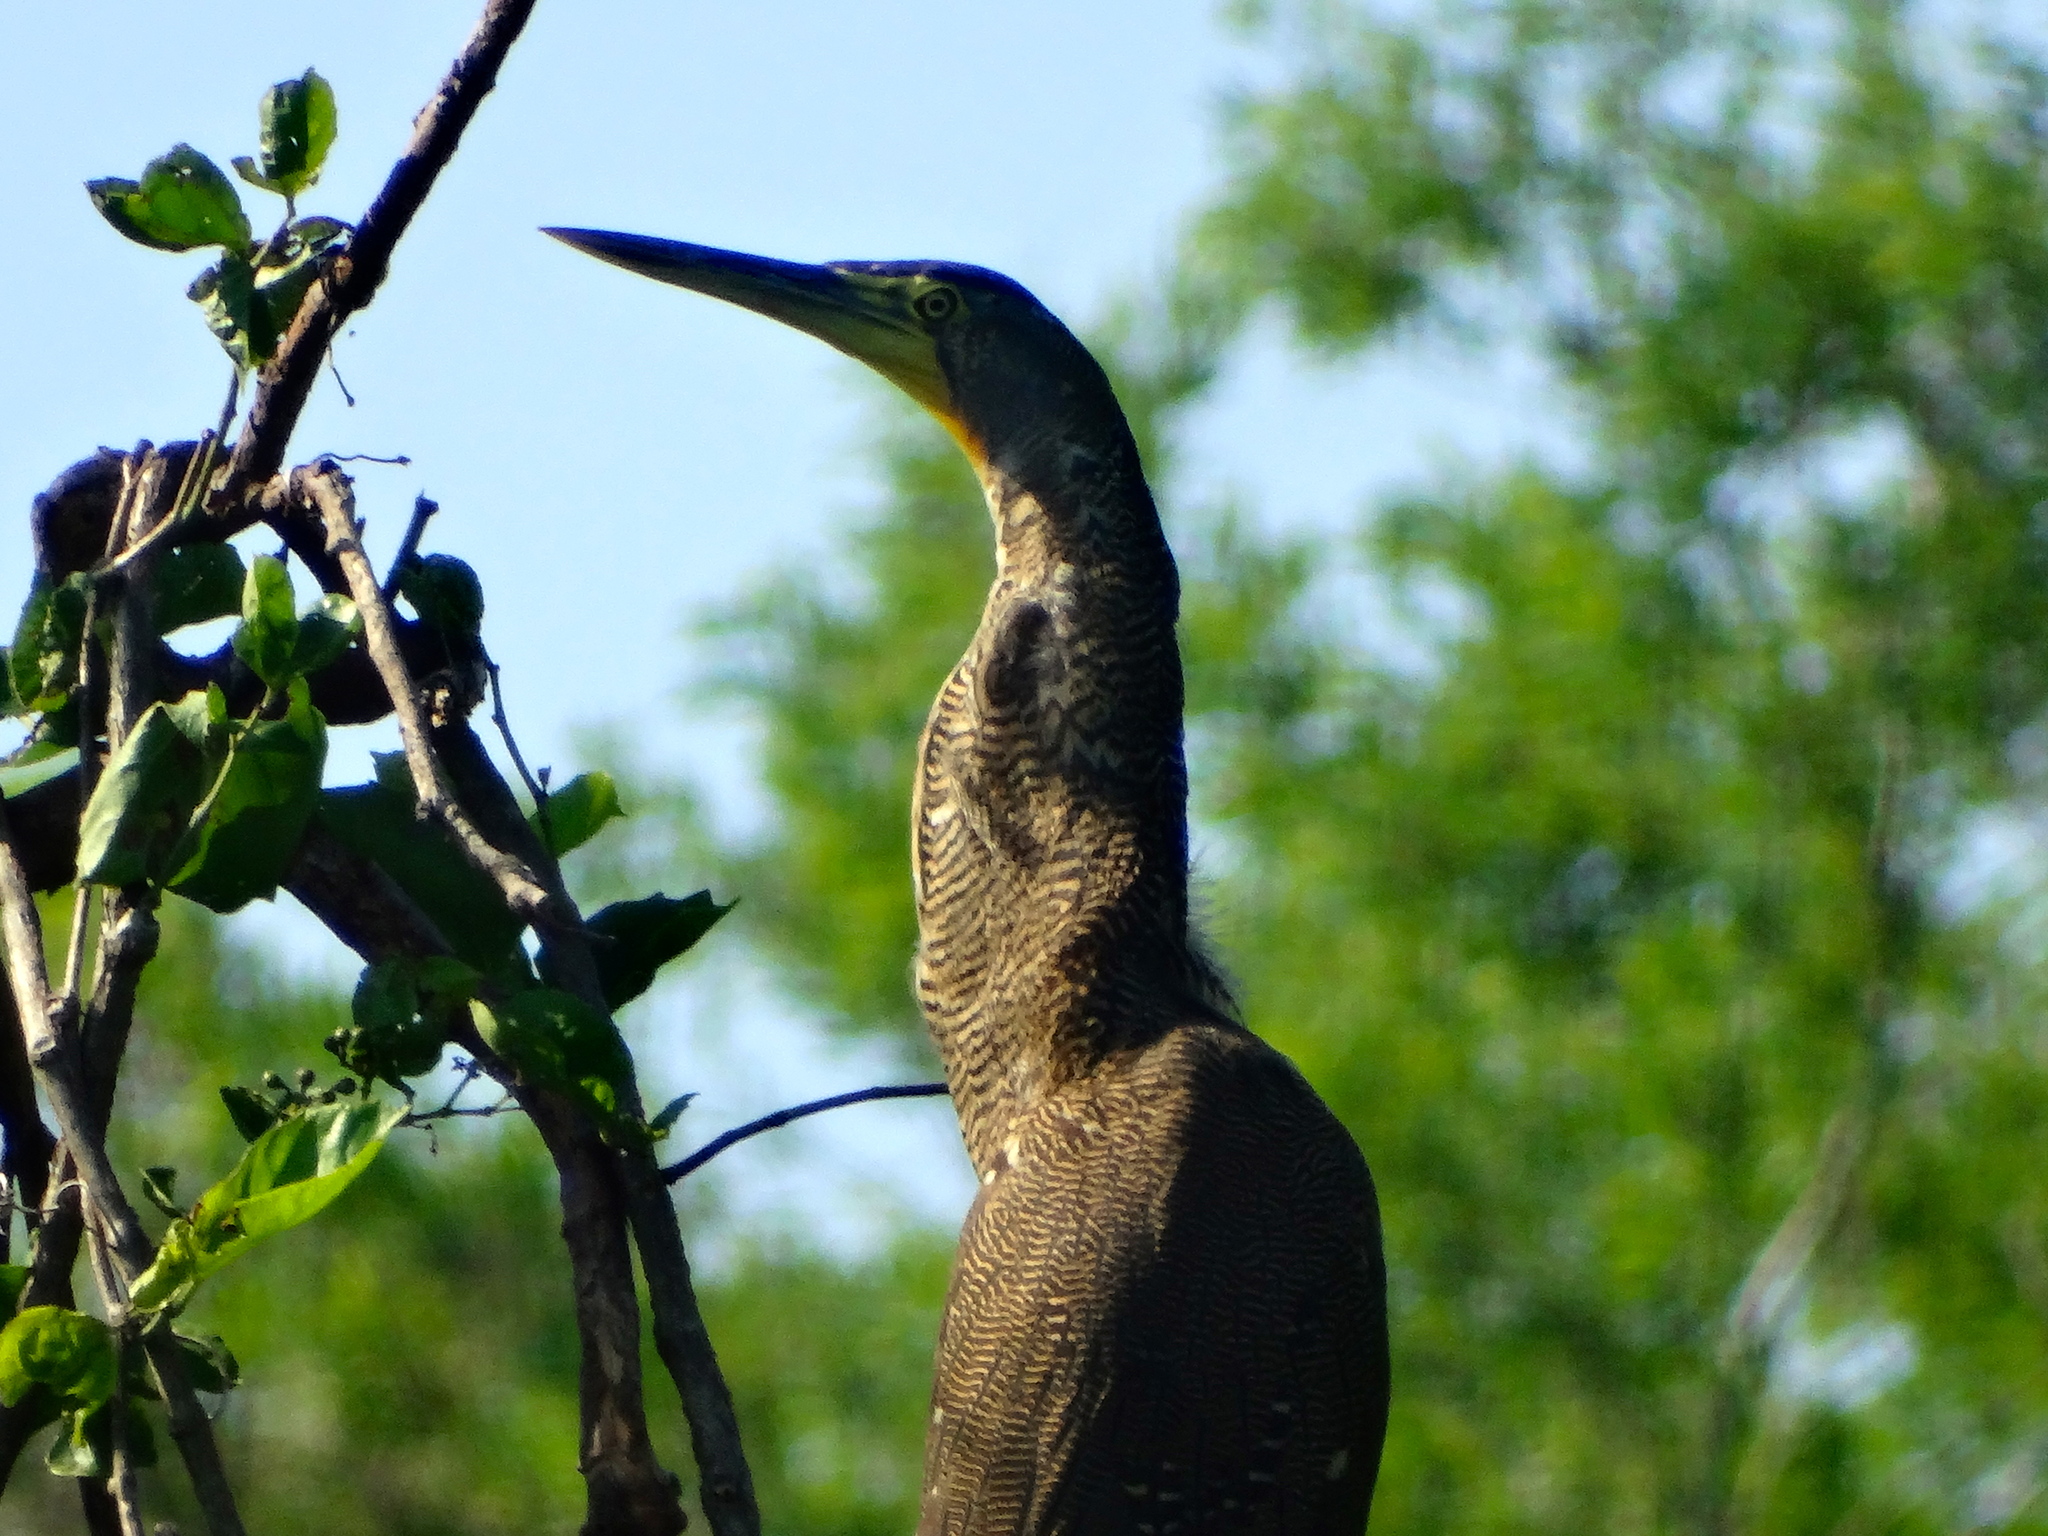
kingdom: Animalia
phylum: Chordata
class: Aves
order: Pelecaniformes
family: Ardeidae
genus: Tigrisoma
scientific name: Tigrisoma mexicanum
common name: Bare-throated tiger-heron
